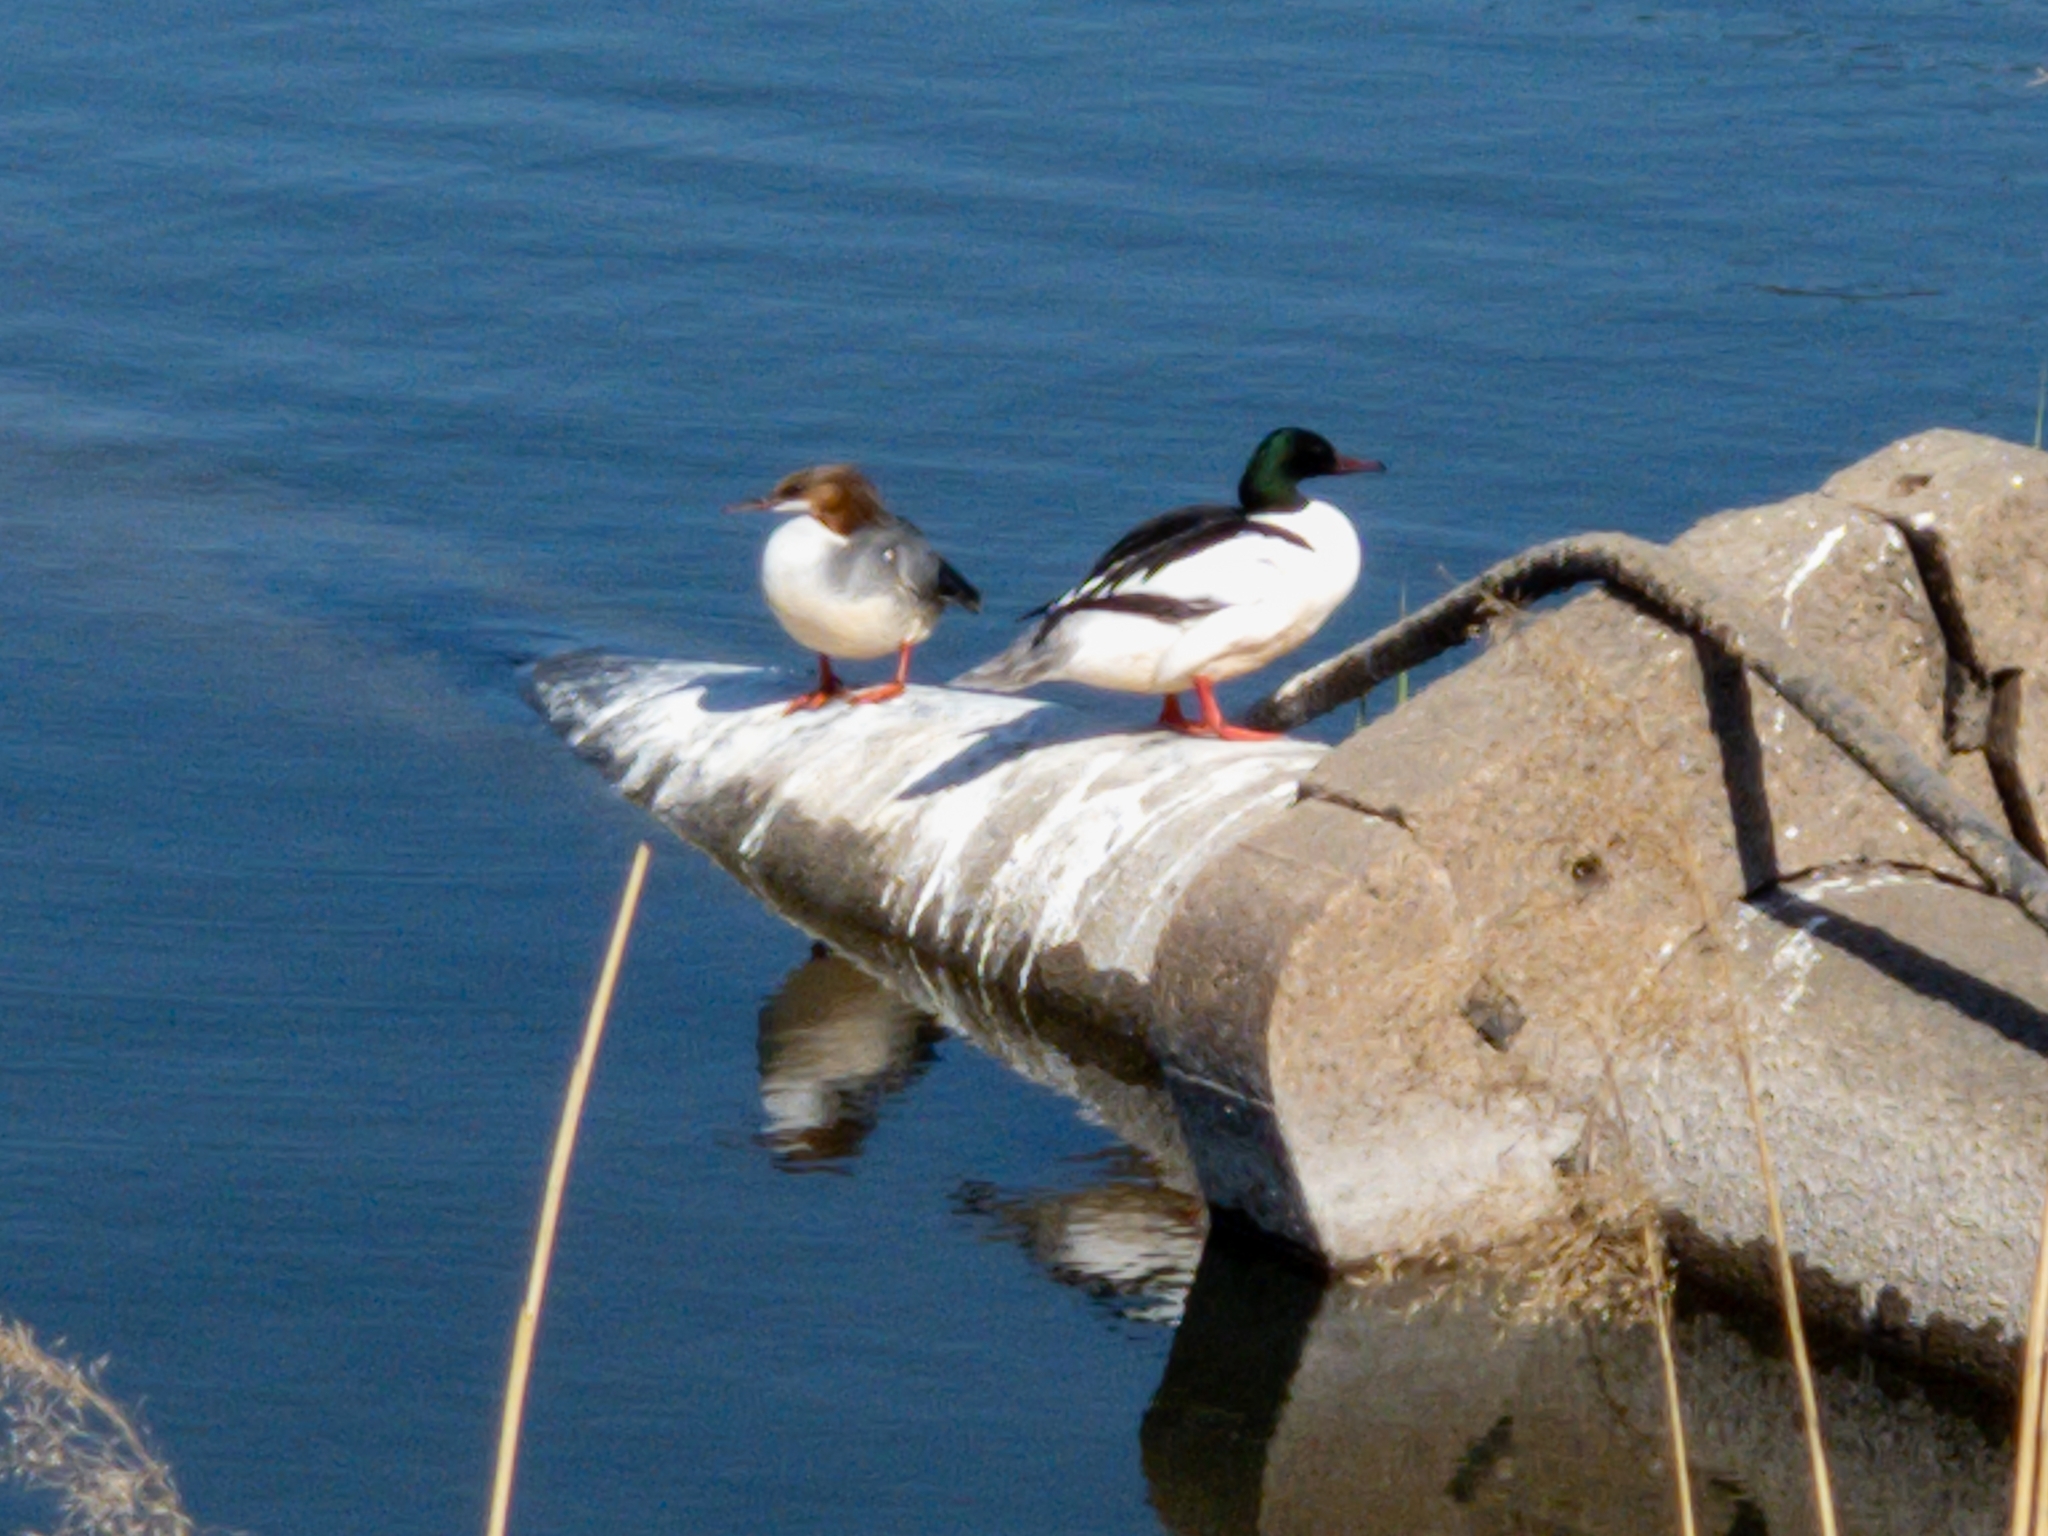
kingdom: Animalia
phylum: Chordata
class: Aves
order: Anseriformes
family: Anatidae
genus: Mergus
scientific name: Mergus merganser
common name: Common merganser
